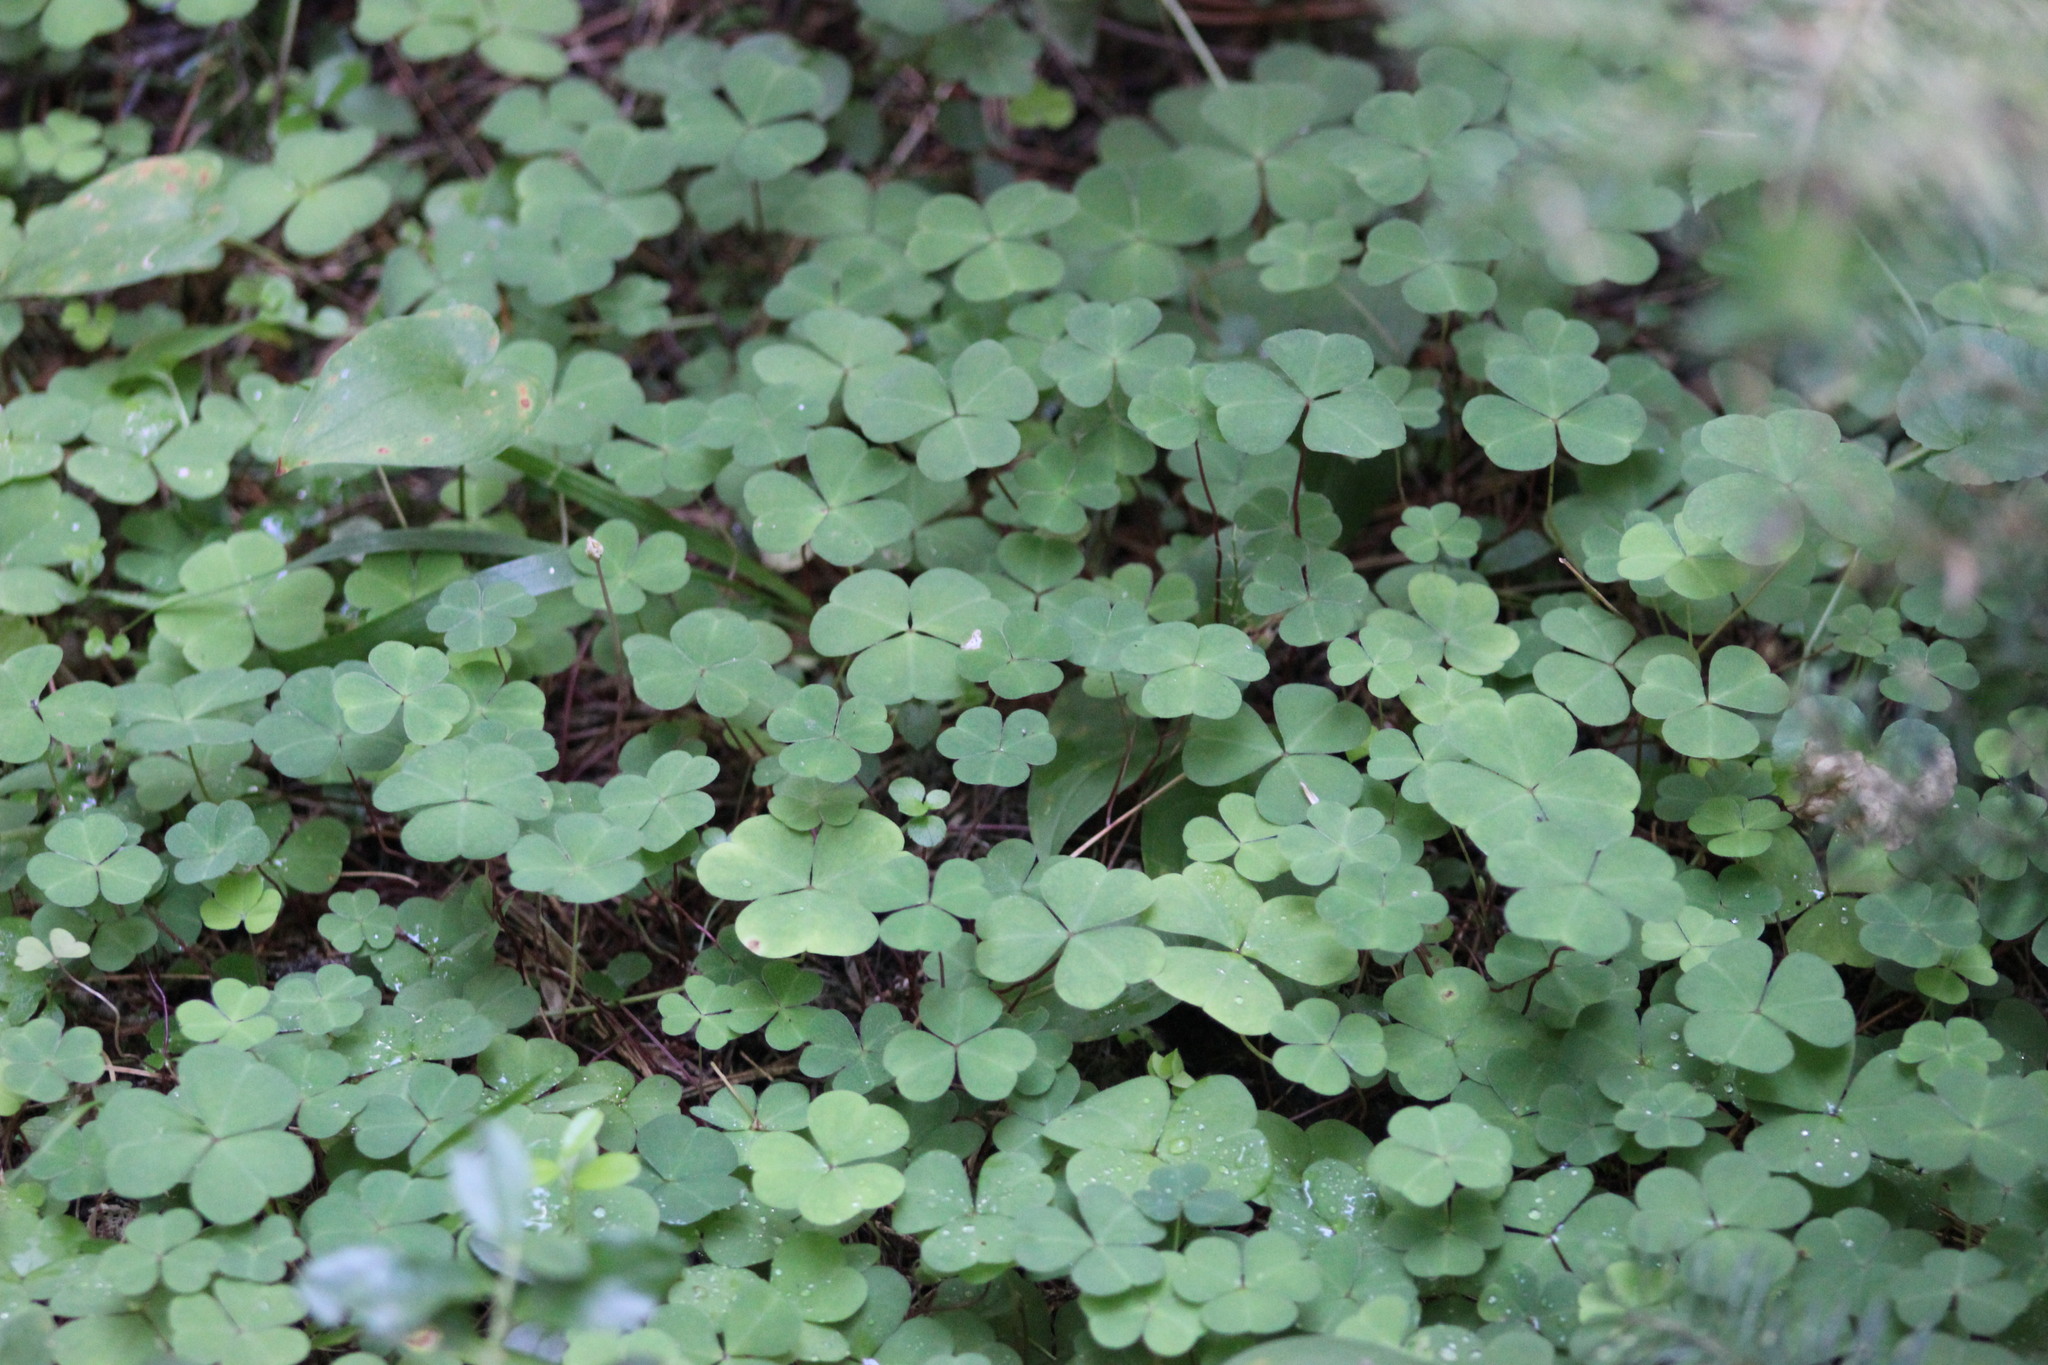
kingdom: Plantae
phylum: Tracheophyta
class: Magnoliopsida
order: Oxalidales
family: Oxalidaceae
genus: Oxalis
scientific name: Oxalis acetosella
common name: Wood-sorrel
